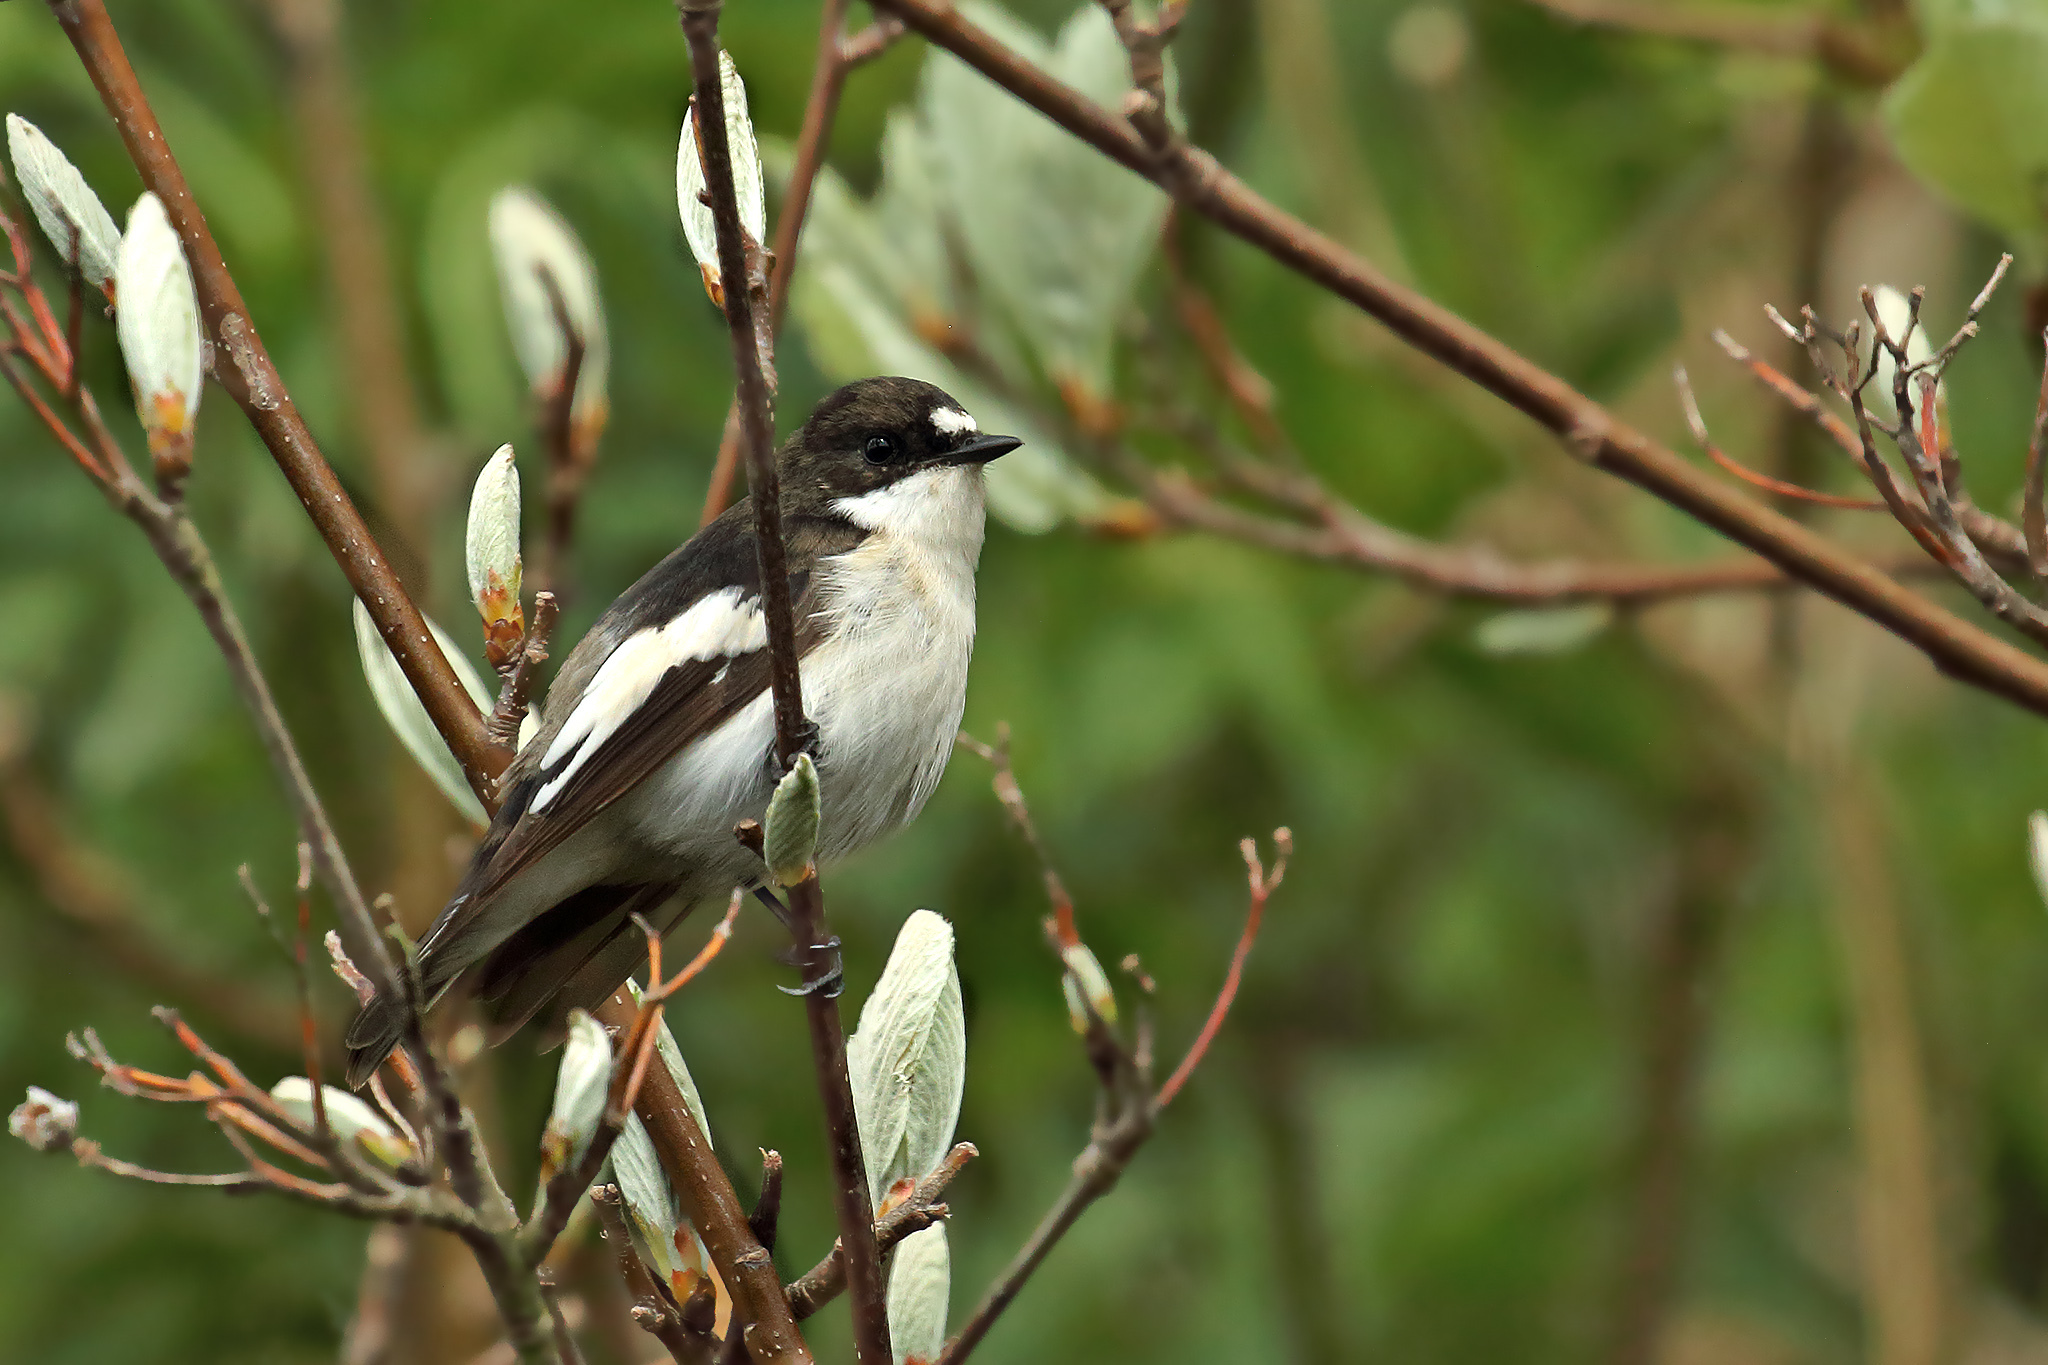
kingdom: Animalia
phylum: Chordata
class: Aves
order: Passeriformes
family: Muscicapidae
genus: Ficedula
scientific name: Ficedula hypoleuca
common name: European pied flycatcher
